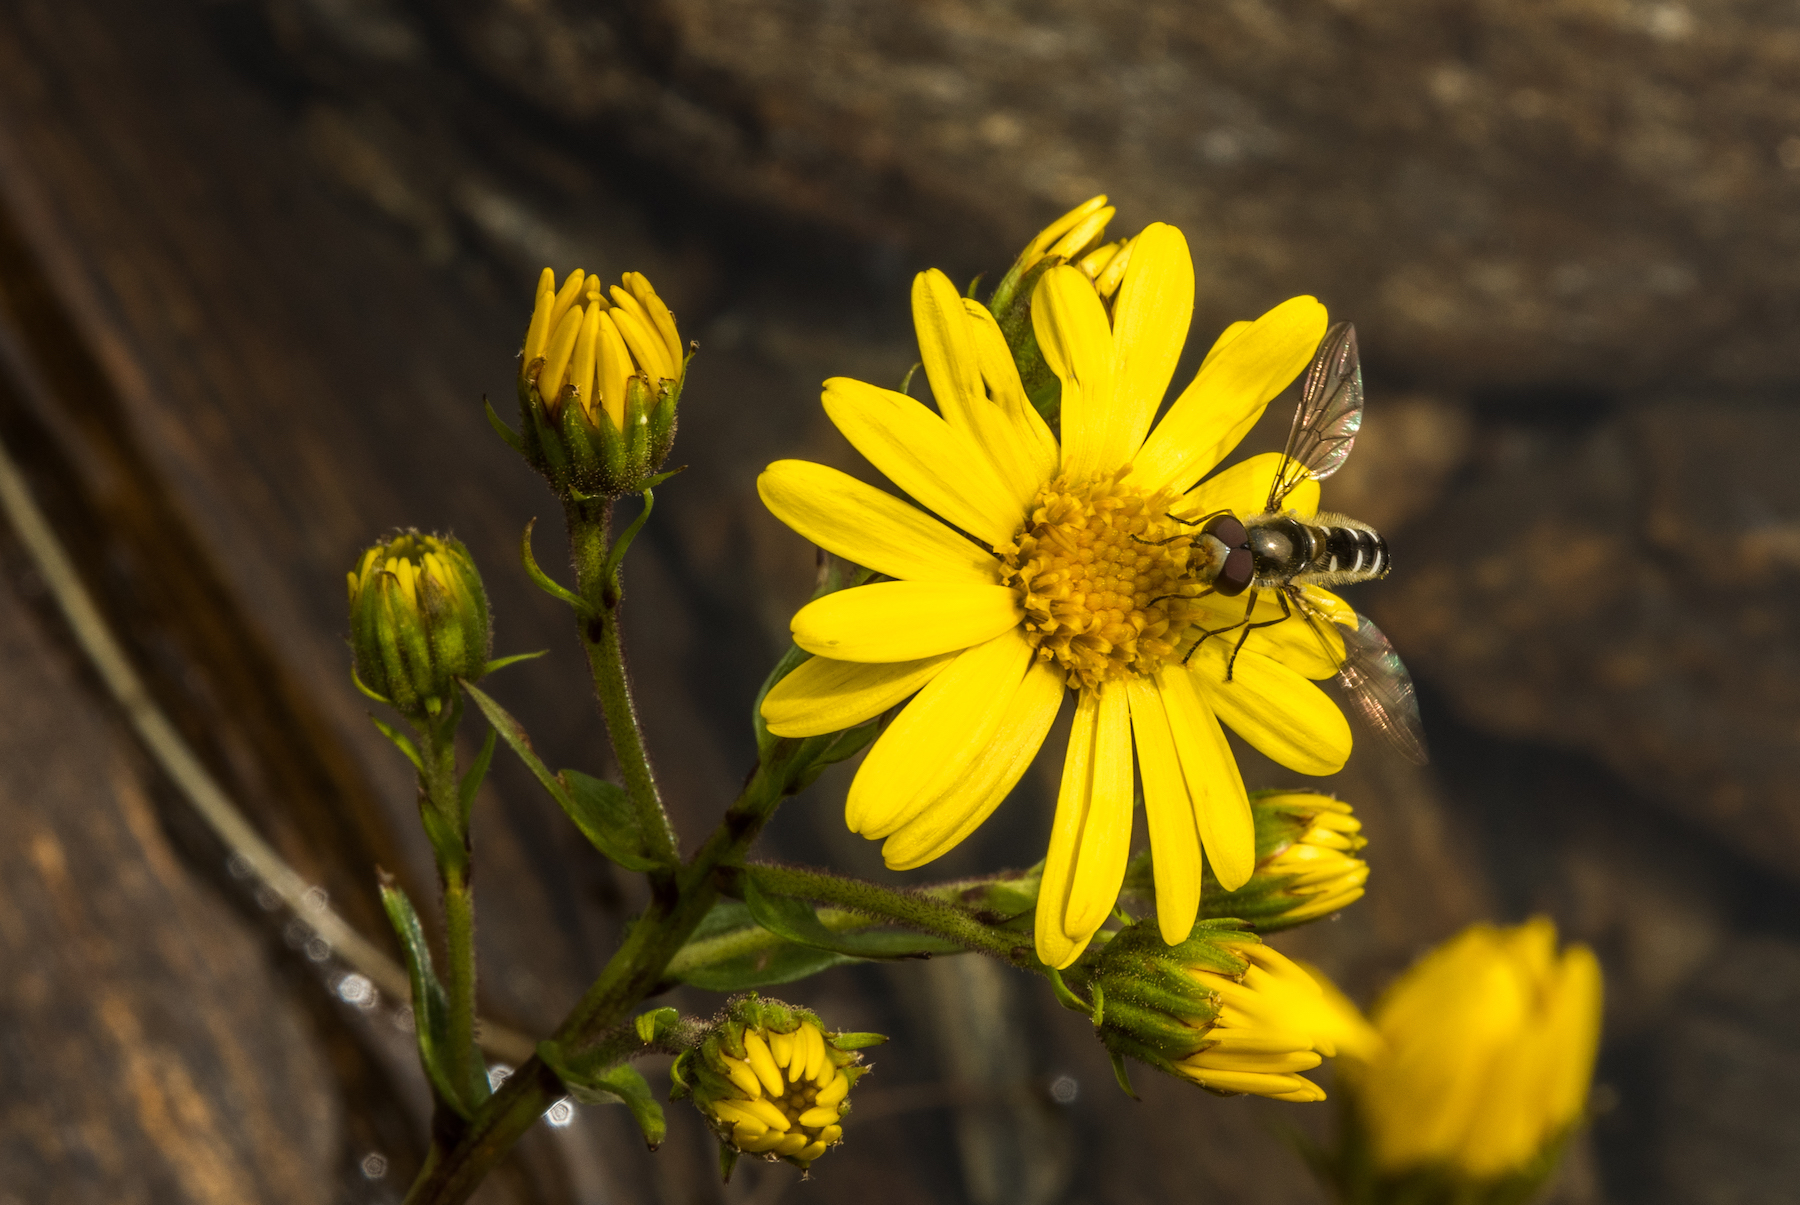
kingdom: Animalia
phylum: Arthropoda
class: Insecta
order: Diptera
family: Syrphidae
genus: Melangyna
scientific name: Melangyna novaezelandiae
